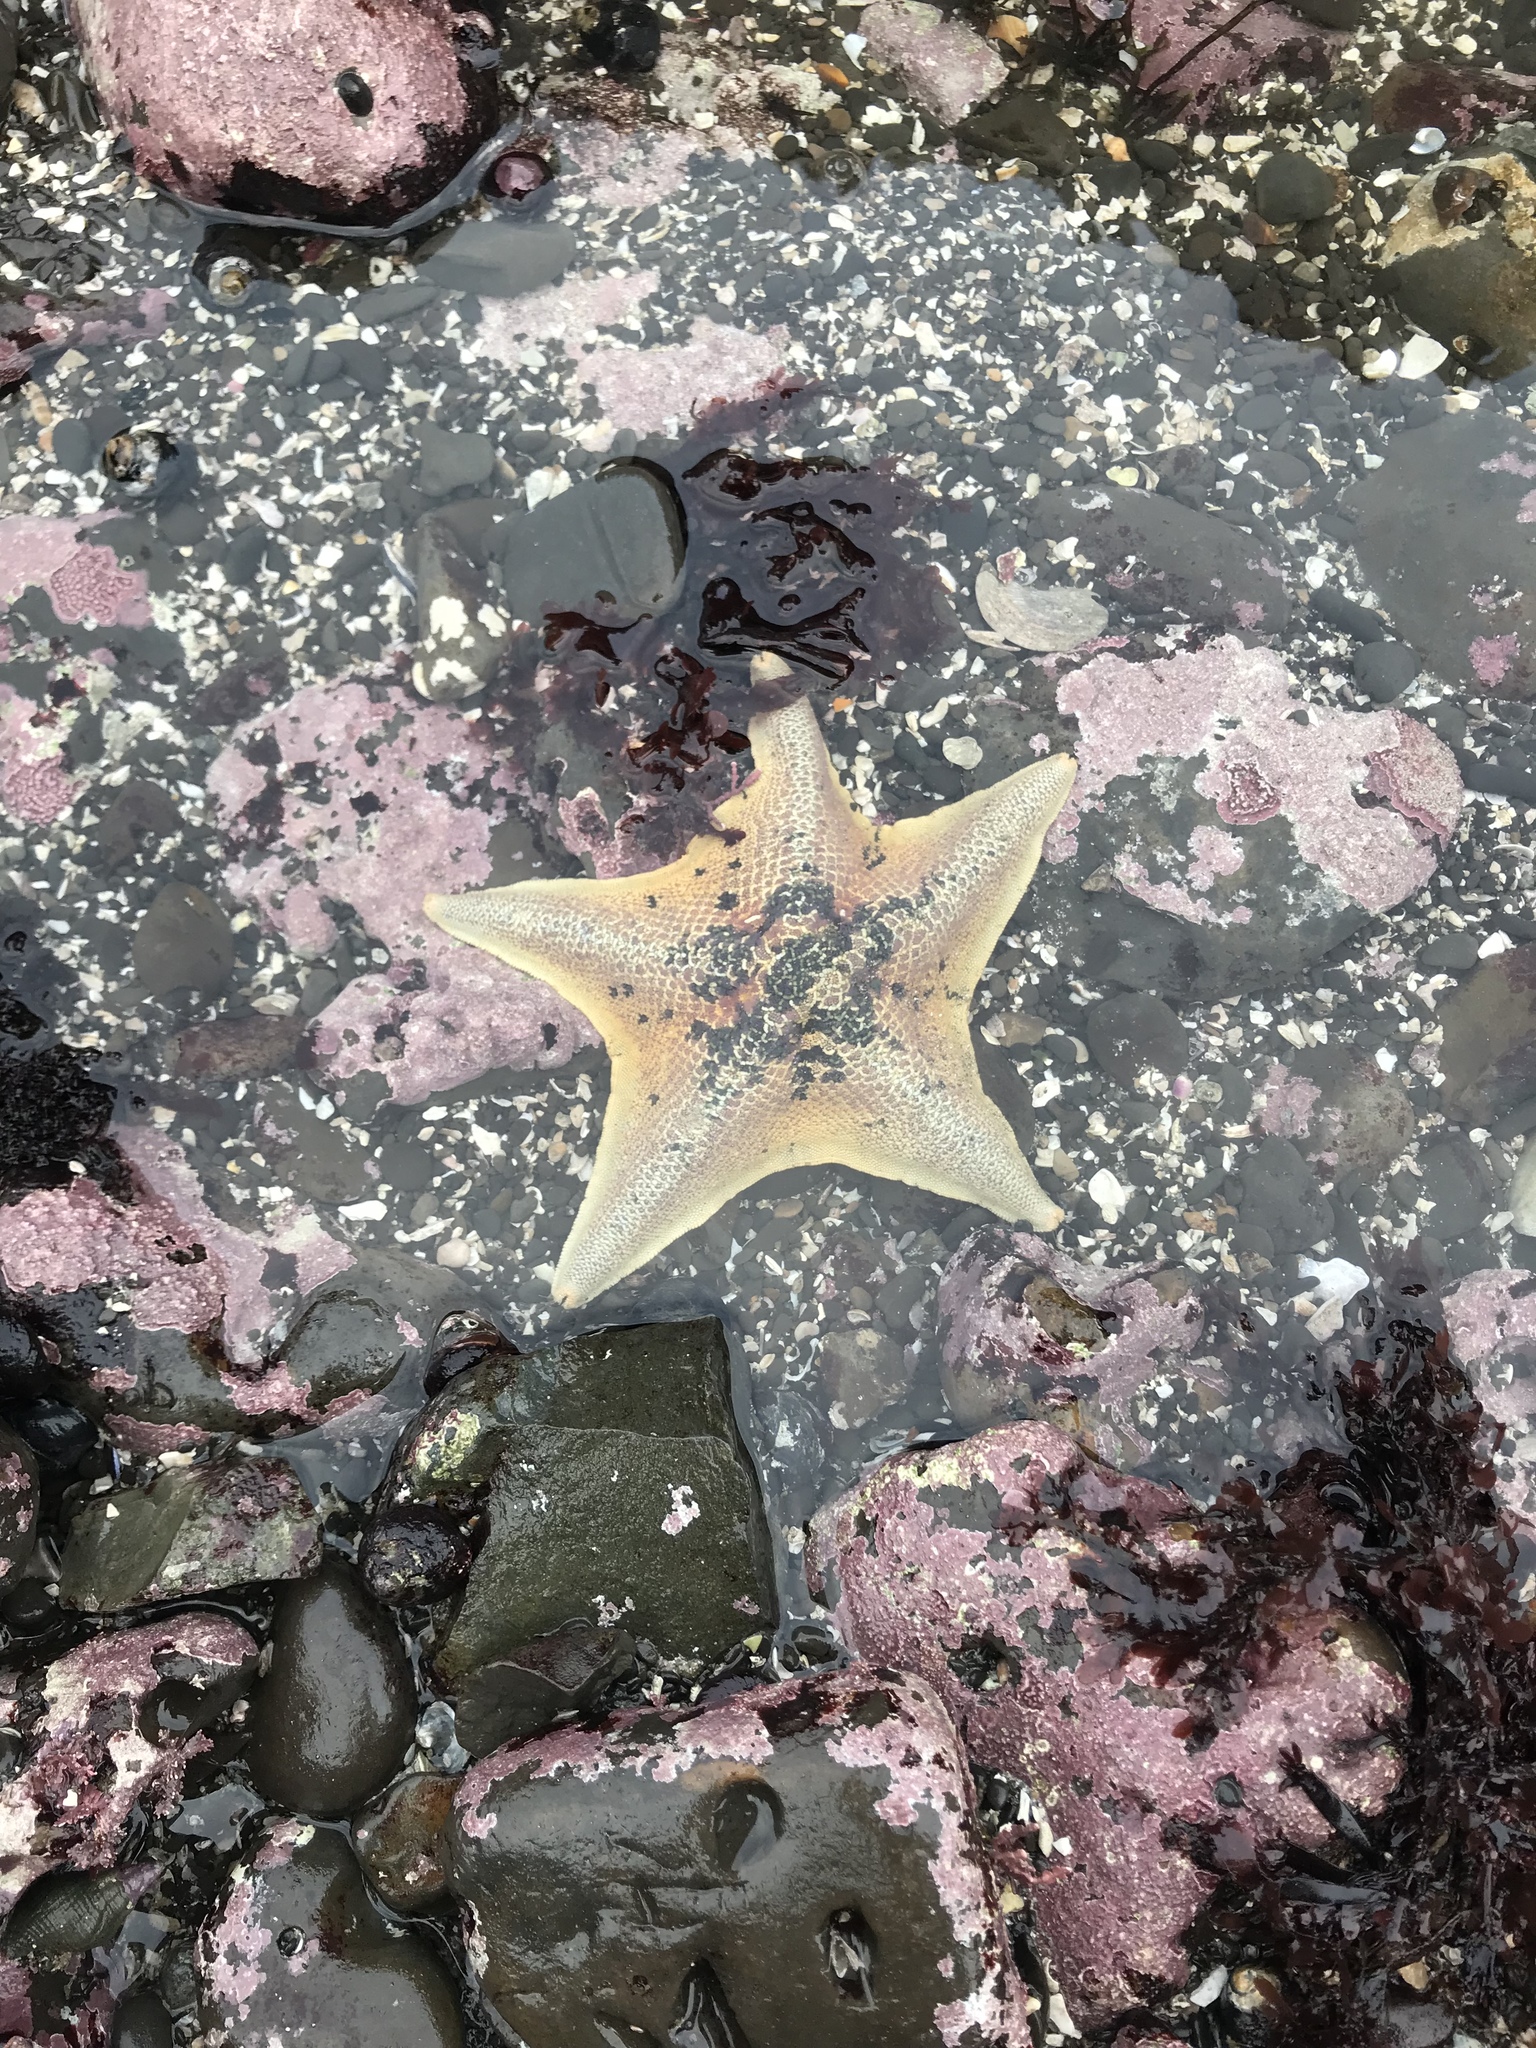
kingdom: Animalia
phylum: Echinodermata
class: Asteroidea
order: Valvatida
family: Asterinidae
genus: Patiria
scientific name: Patiria miniata
